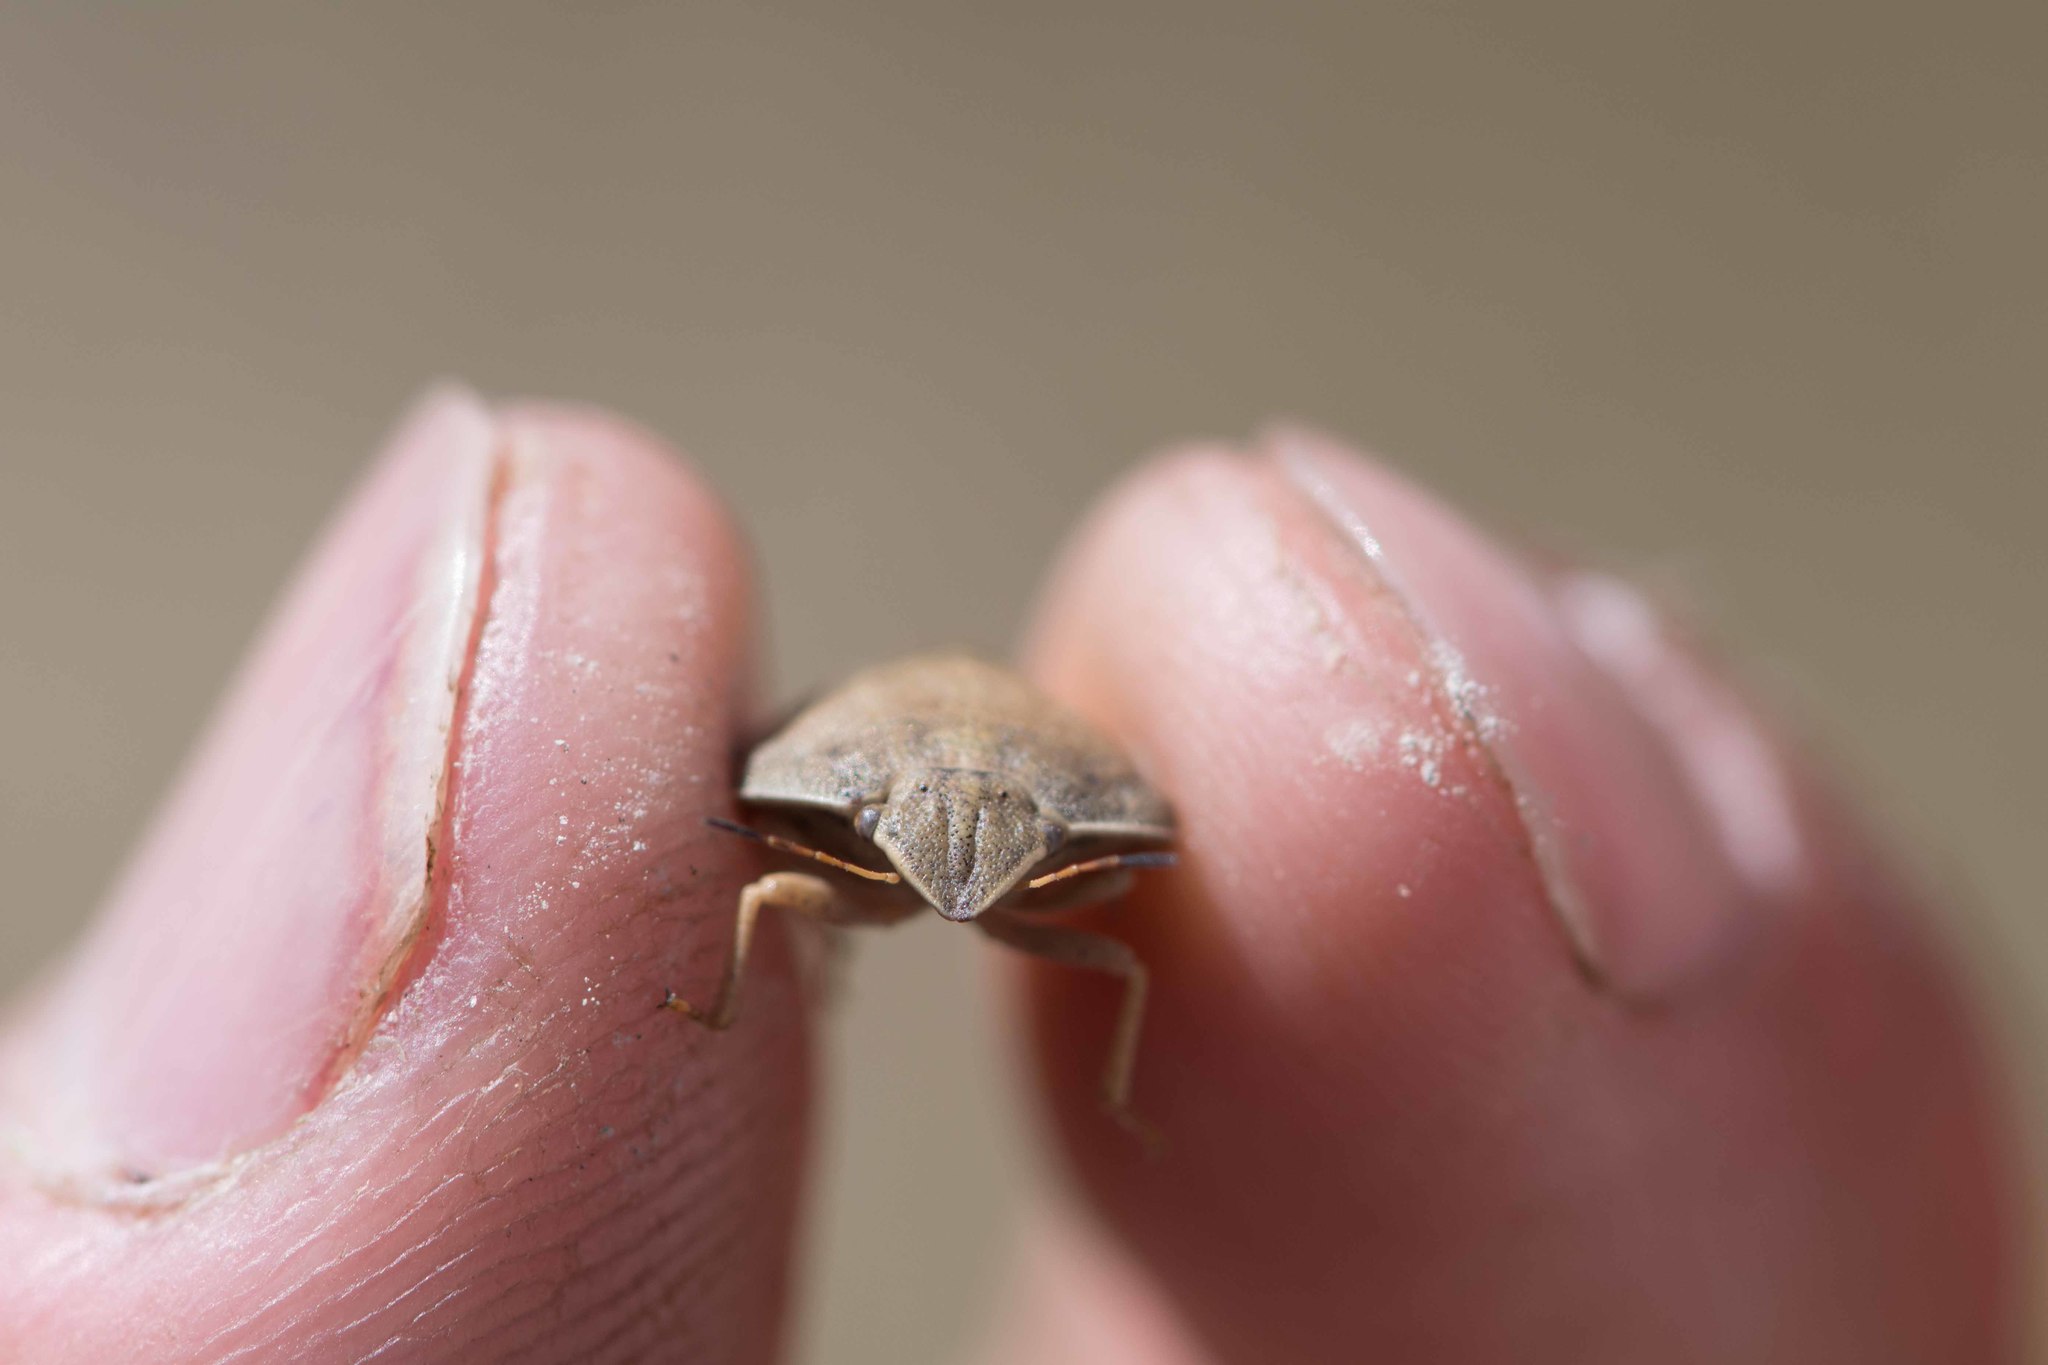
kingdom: Animalia
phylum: Arthropoda
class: Insecta
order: Hemiptera
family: Scutelleridae
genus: Eurygaster
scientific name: Eurygaster austriaca
